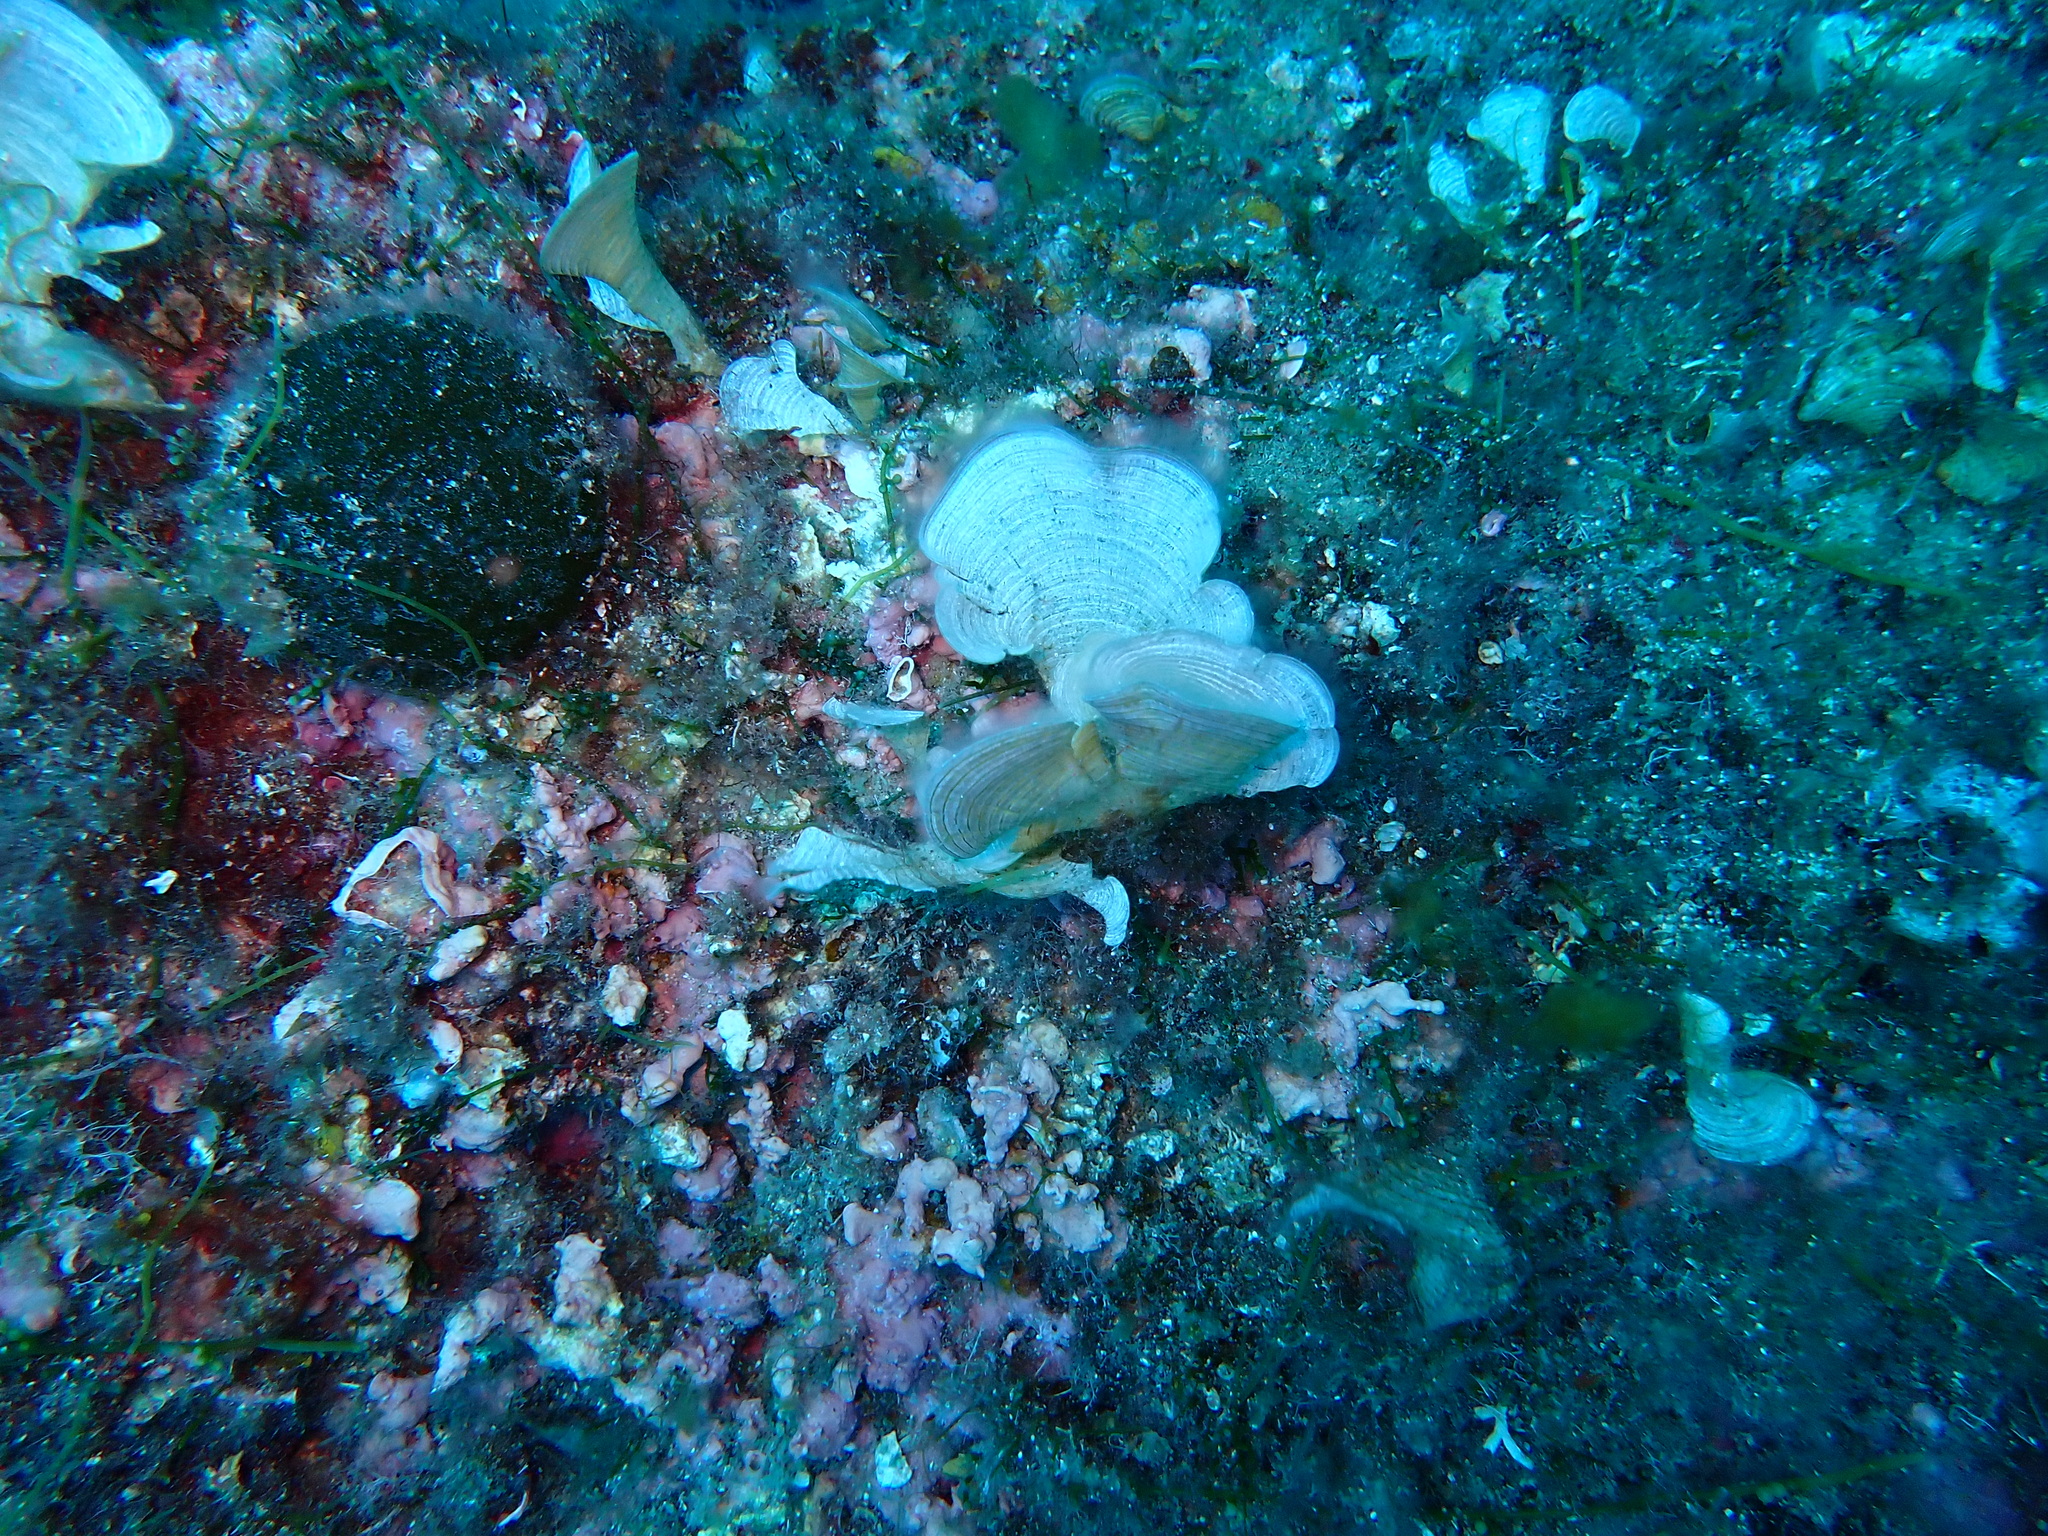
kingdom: Chromista
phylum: Ochrophyta
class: Phaeophyceae
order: Dictyotales
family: Dictyotaceae
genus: Padina
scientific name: Padina
